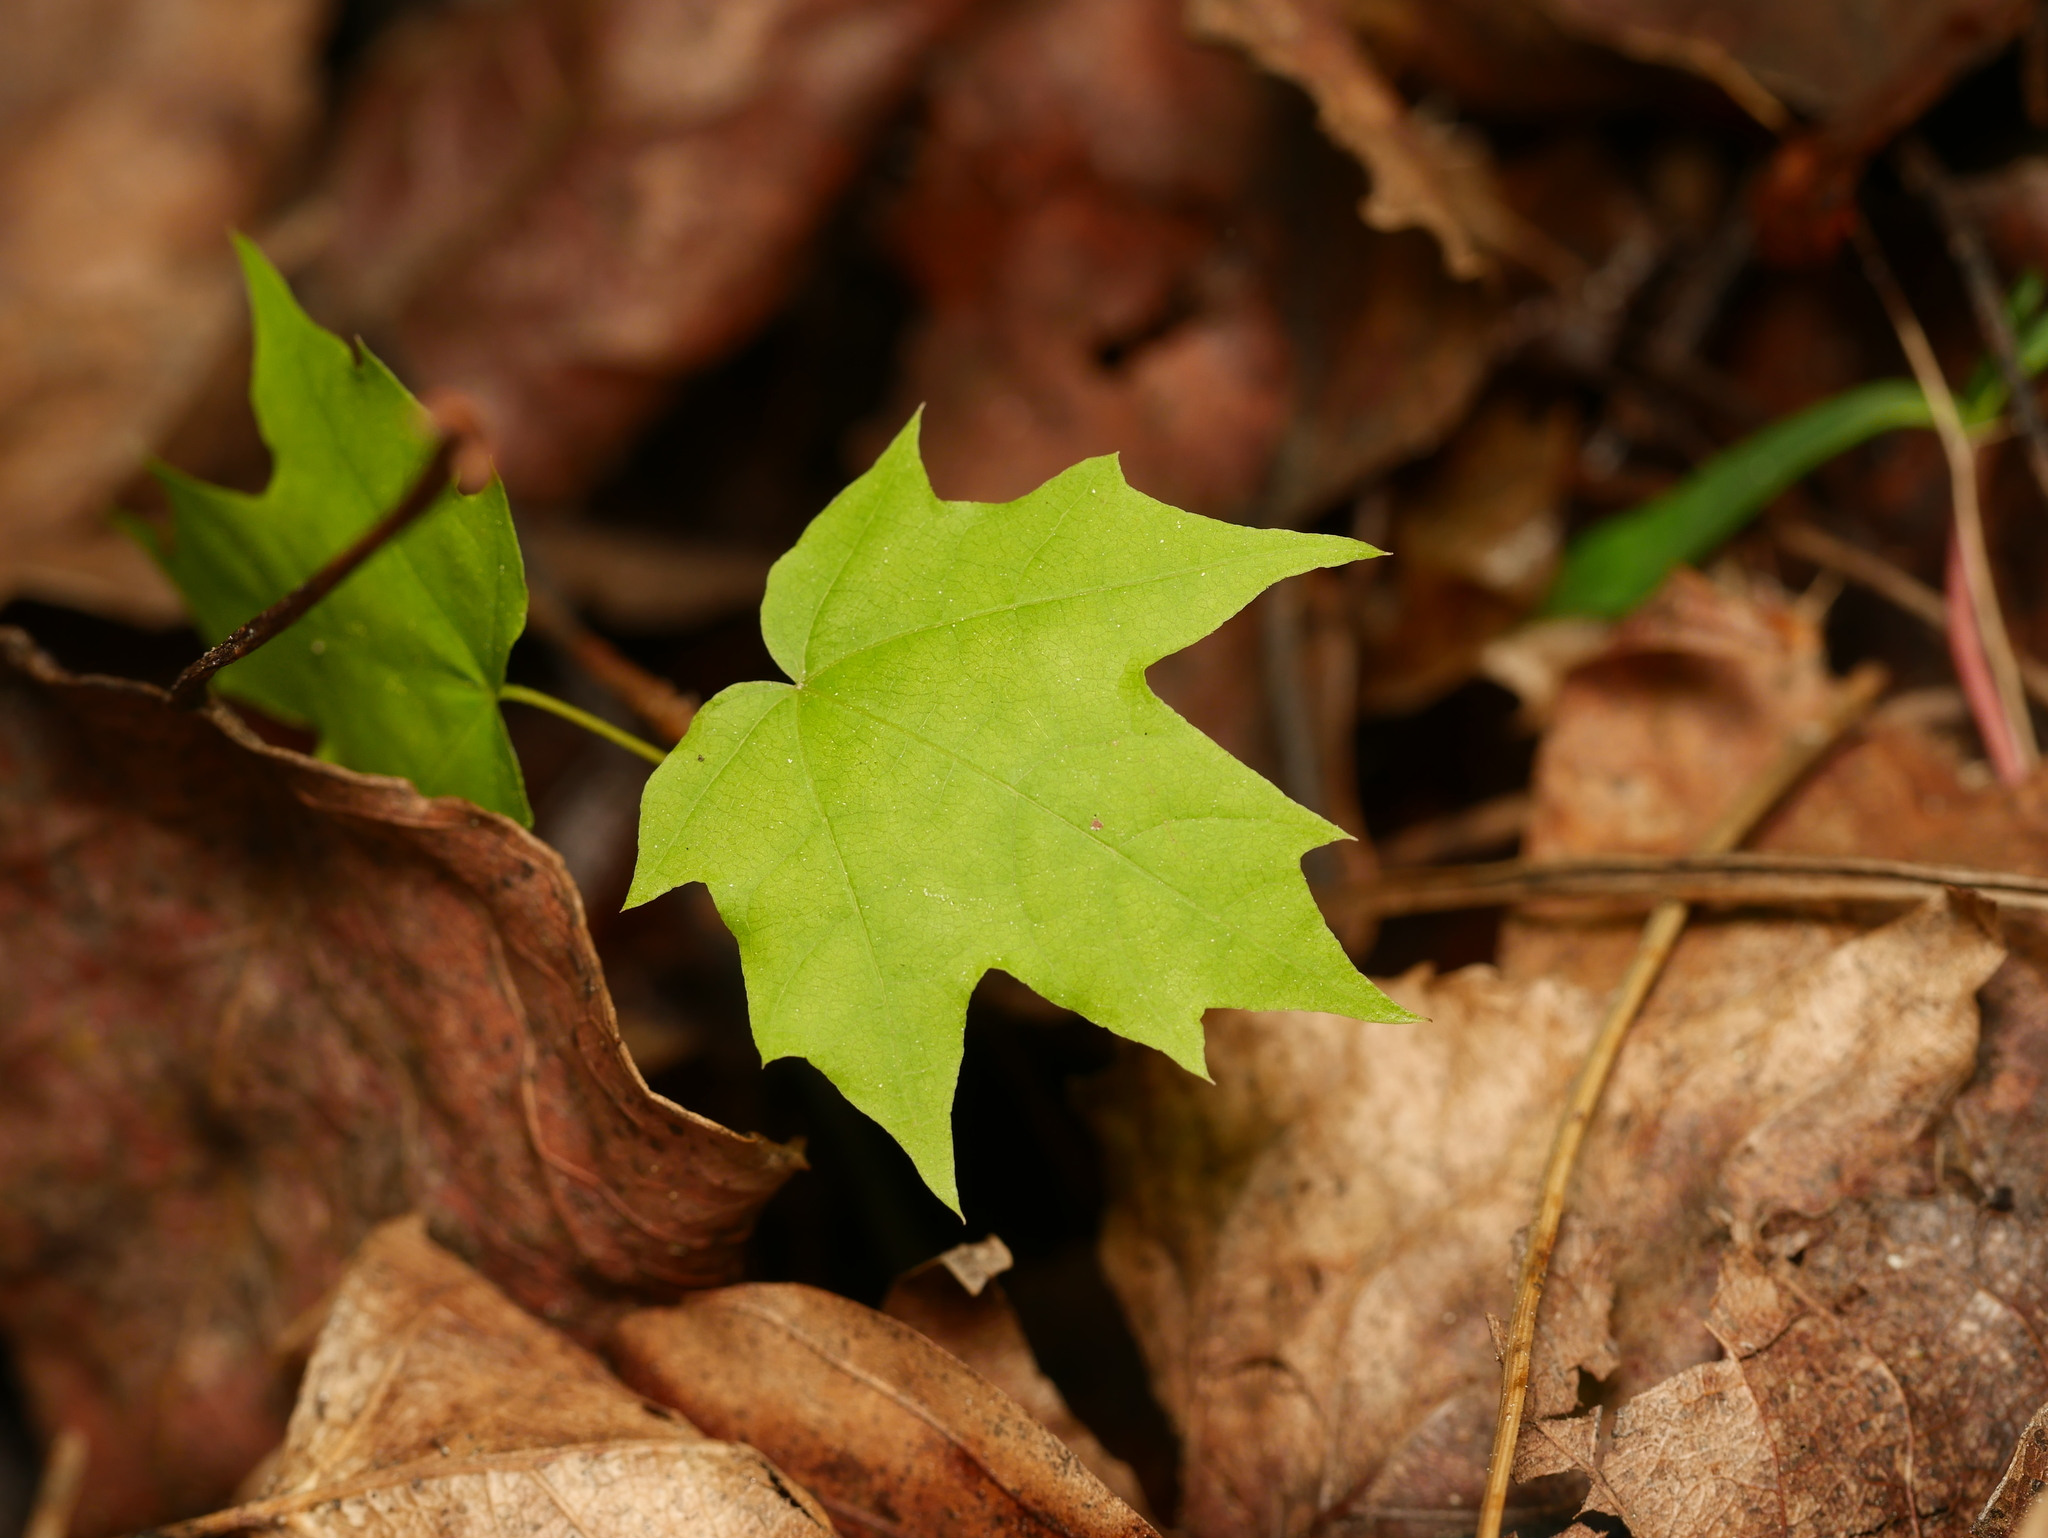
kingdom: Plantae
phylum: Tracheophyta
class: Magnoliopsida
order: Sapindales
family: Sapindaceae
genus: Acer
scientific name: Acer platanoides
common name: Norway maple
